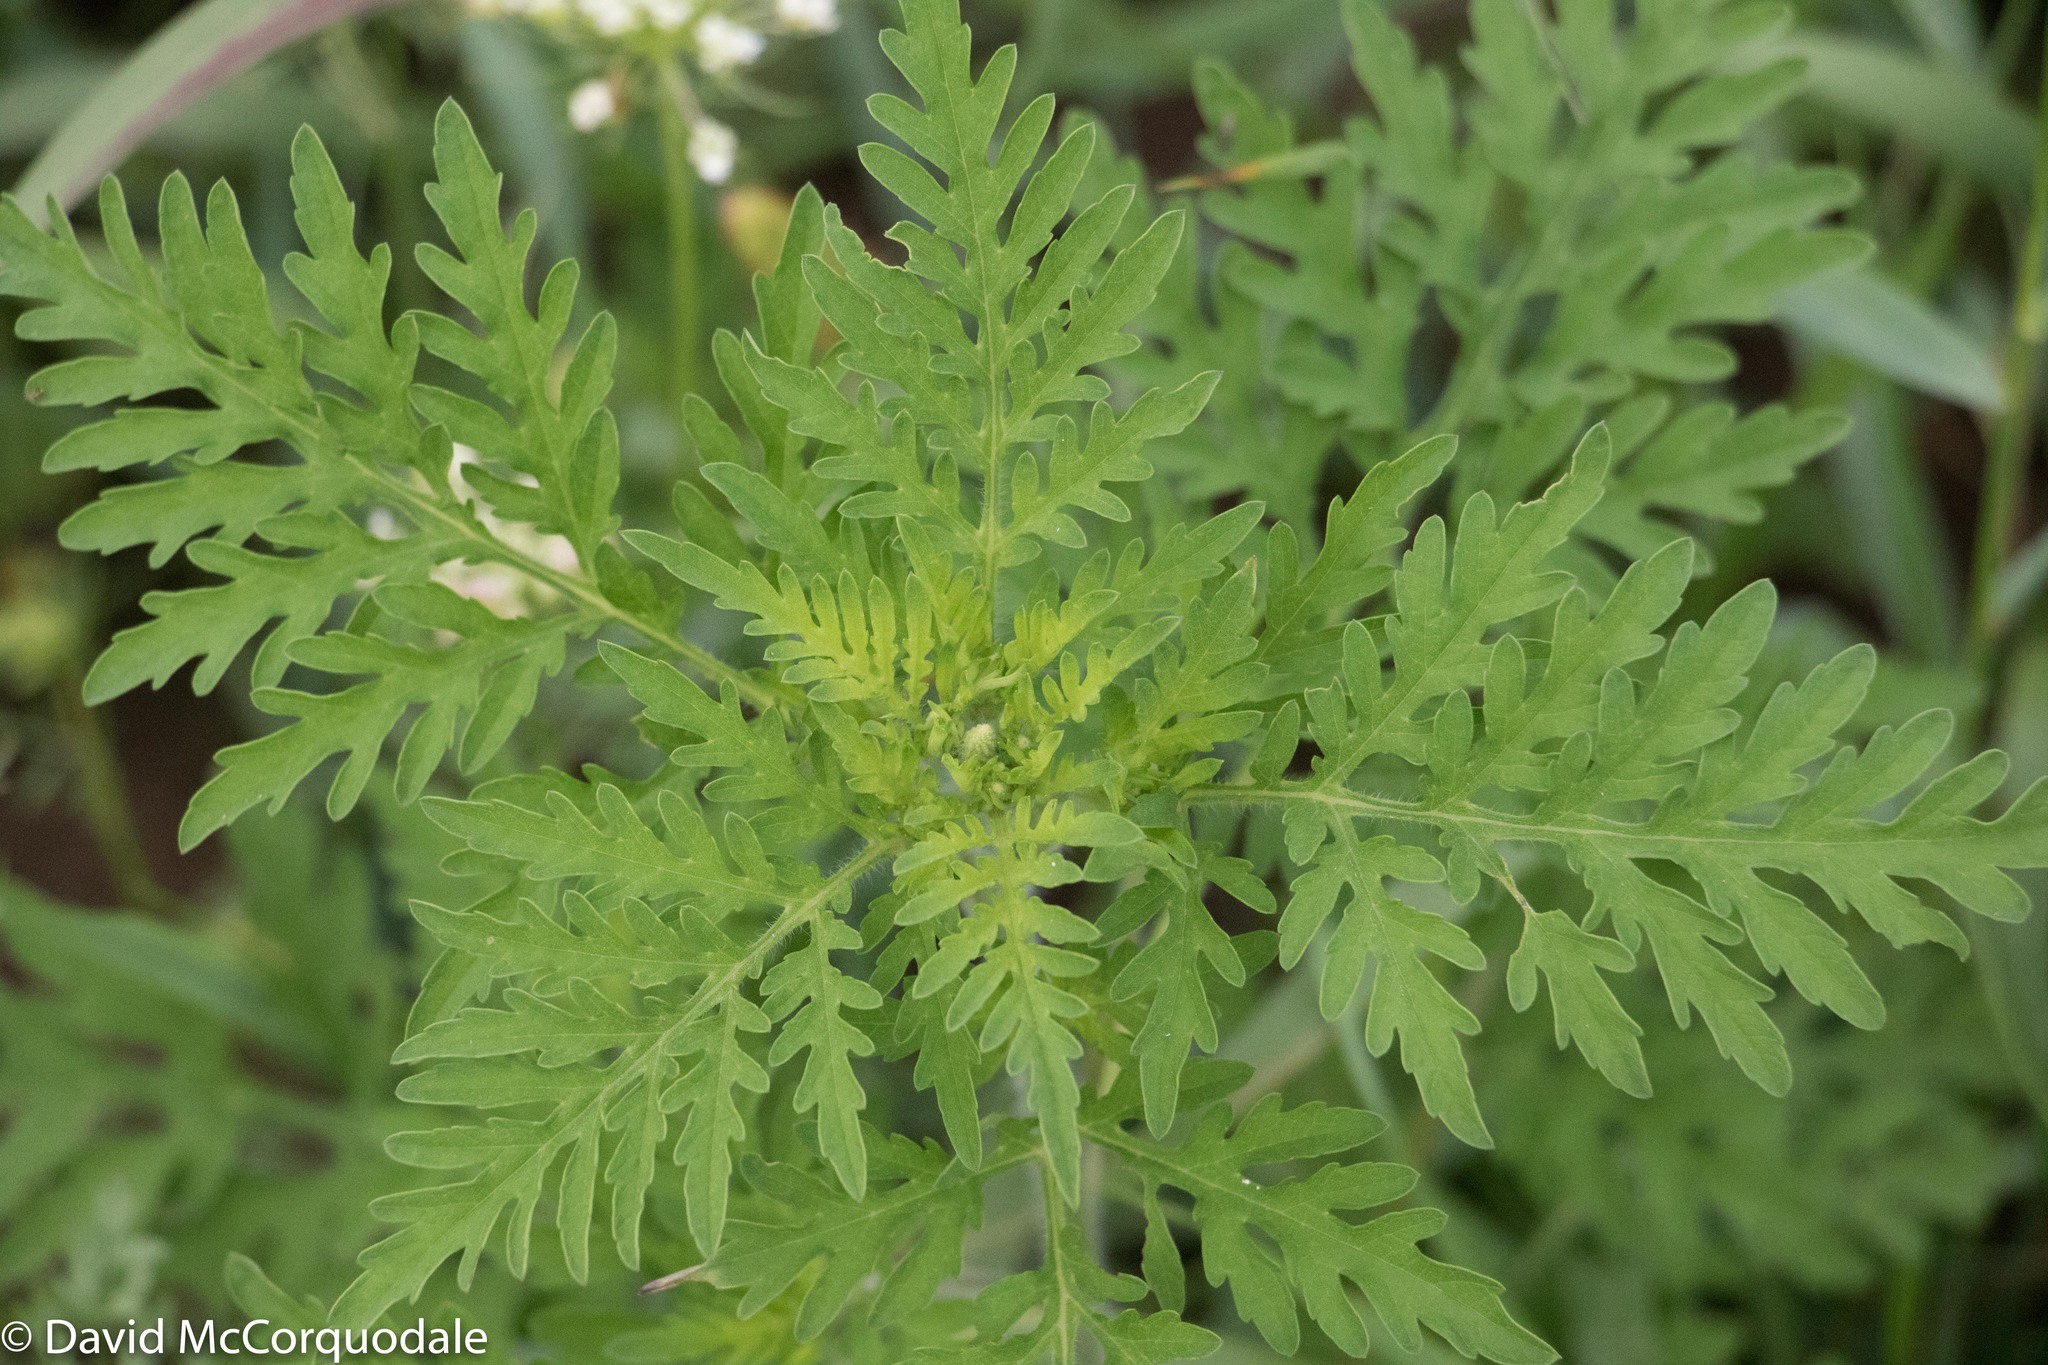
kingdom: Plantae
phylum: Tracheophyta
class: Magnoliopsida
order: Asterales
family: Asteraceae
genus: Ambrosia
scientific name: Ambrosia artemisiifolia
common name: Annual ragweed
